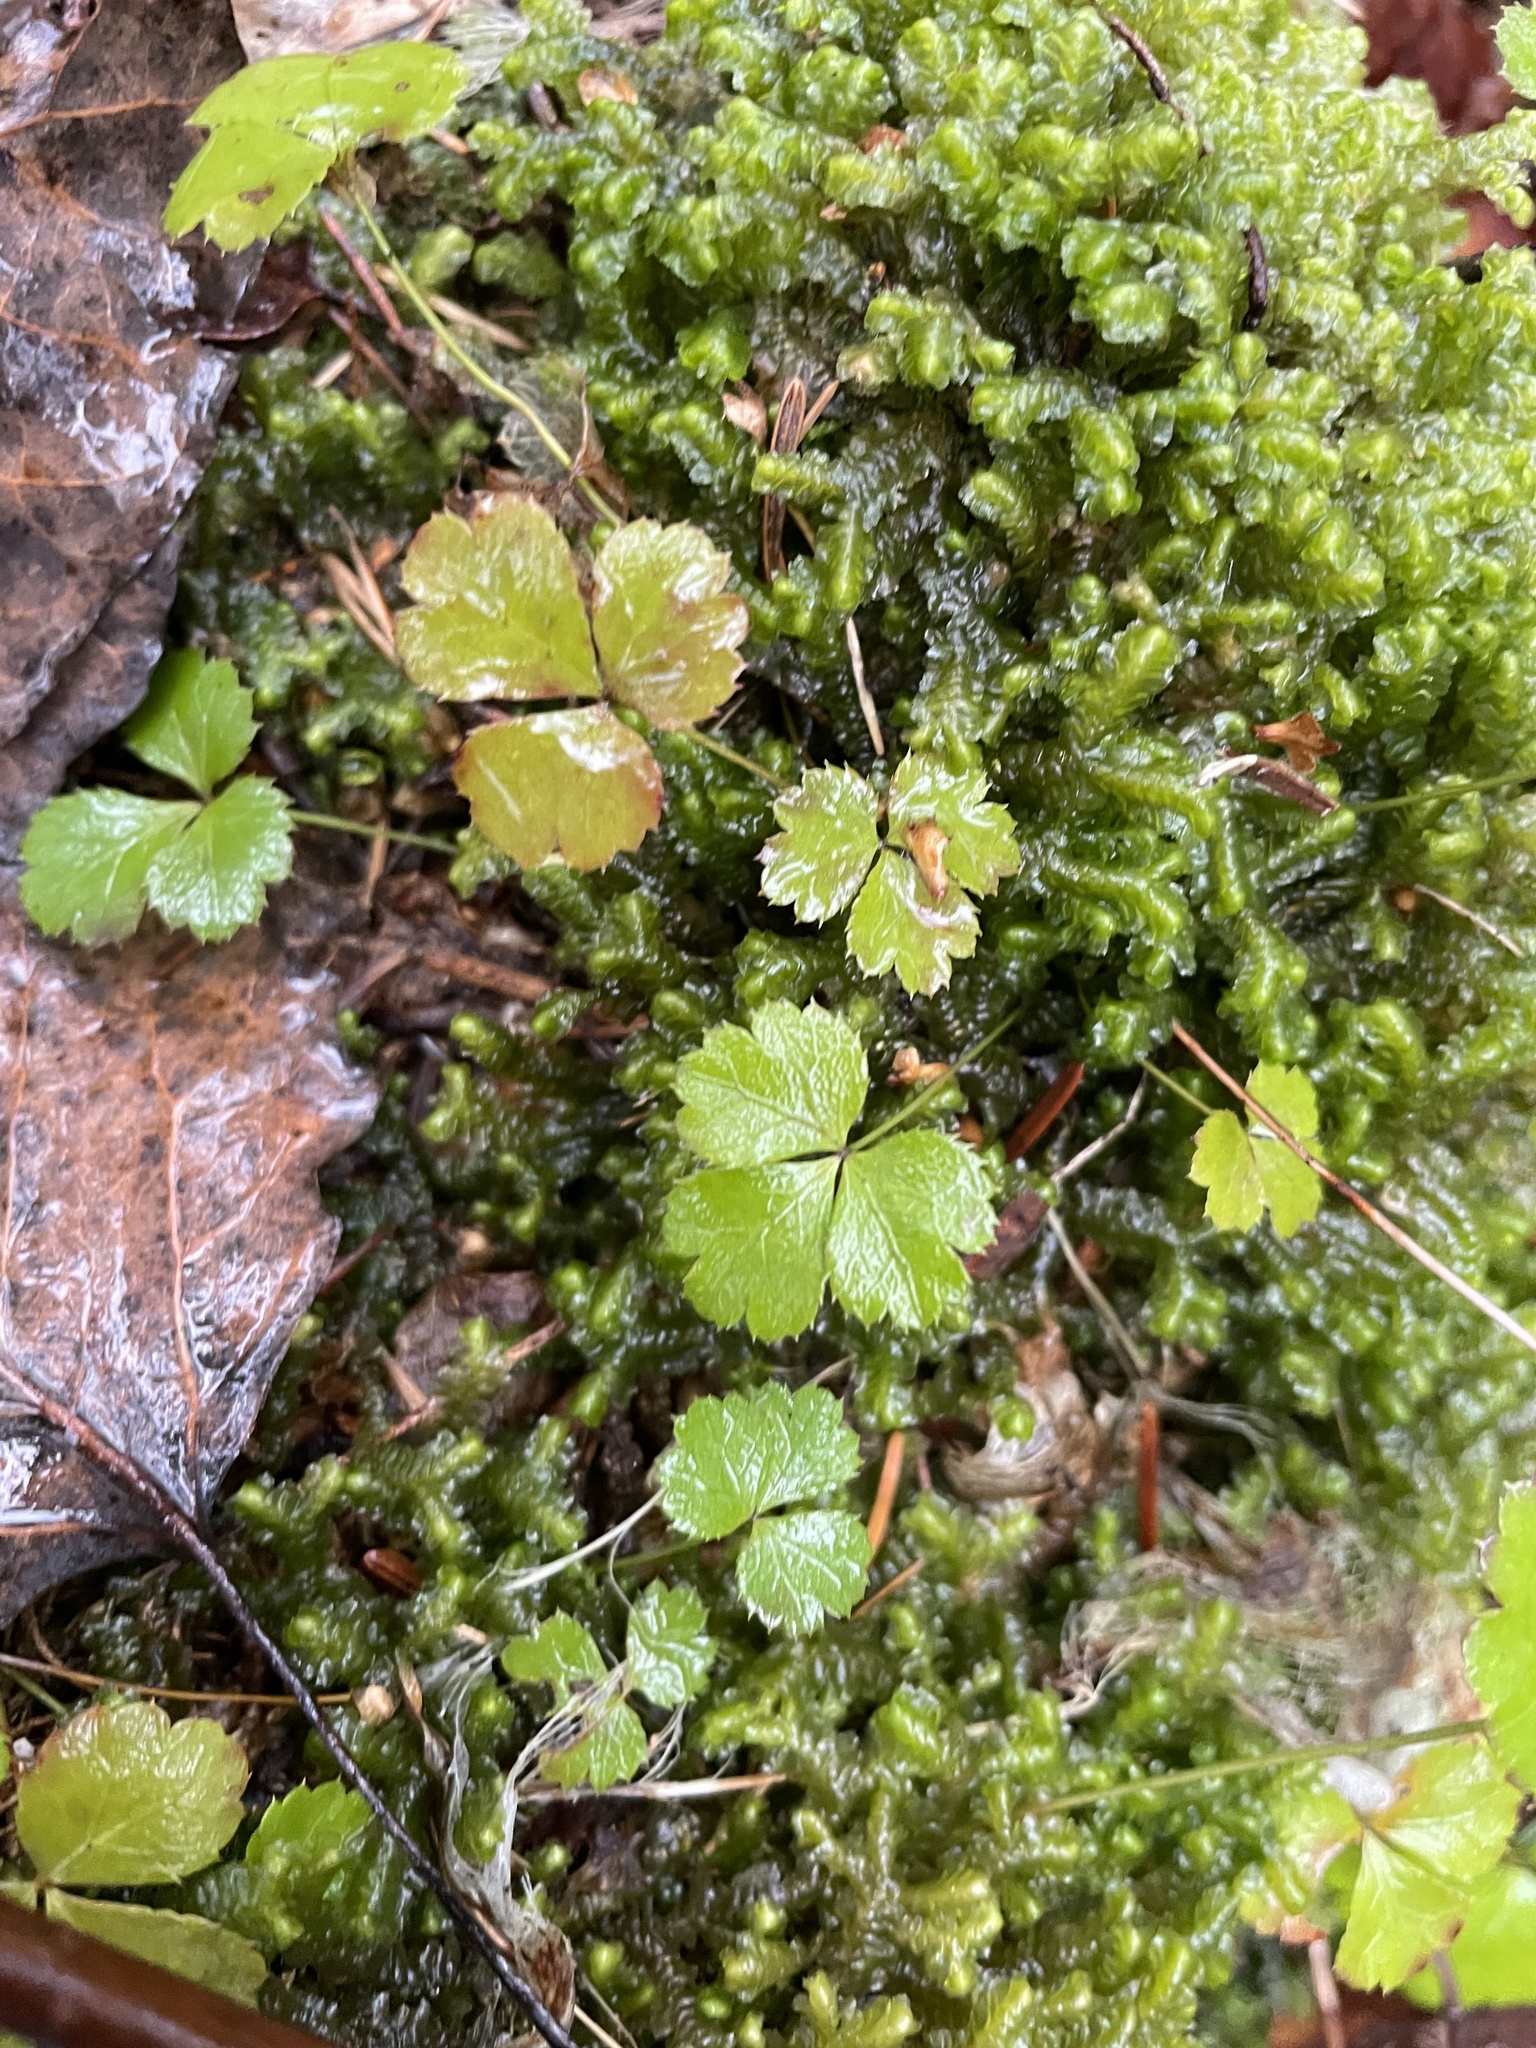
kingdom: Plantae
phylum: Tracheophyta
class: Magnoliopsida
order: Ranunculales
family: Ranunculaceae
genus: Coptis
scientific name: Coptis trifolia
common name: Canker-root
